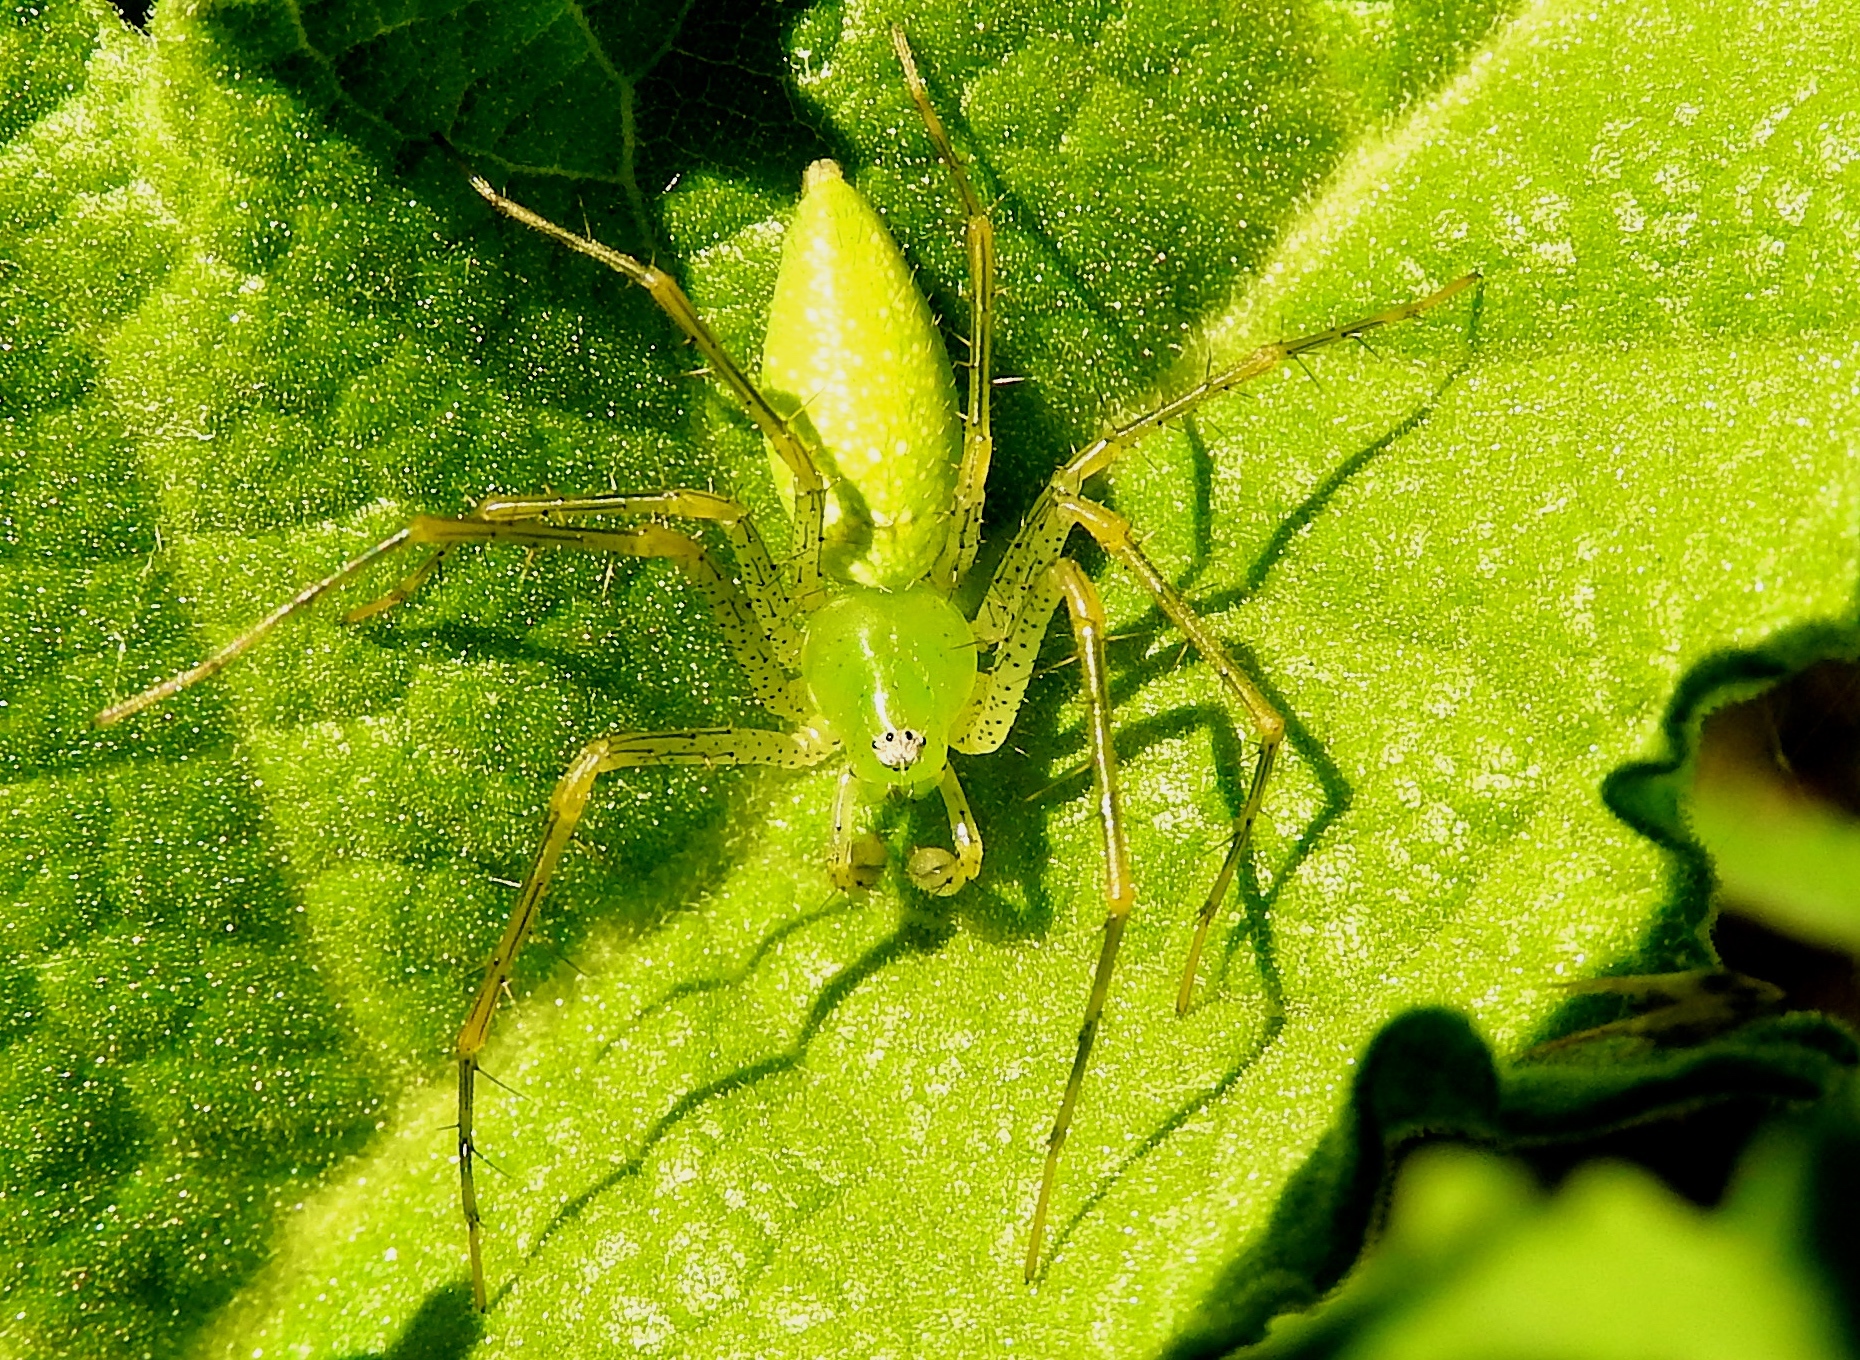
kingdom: Animalia
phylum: Arthropoda
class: Arachnida
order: Araneae
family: Oxyopidae
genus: Peucetia
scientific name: Peucetia longipalpis
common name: Lynx spiders
